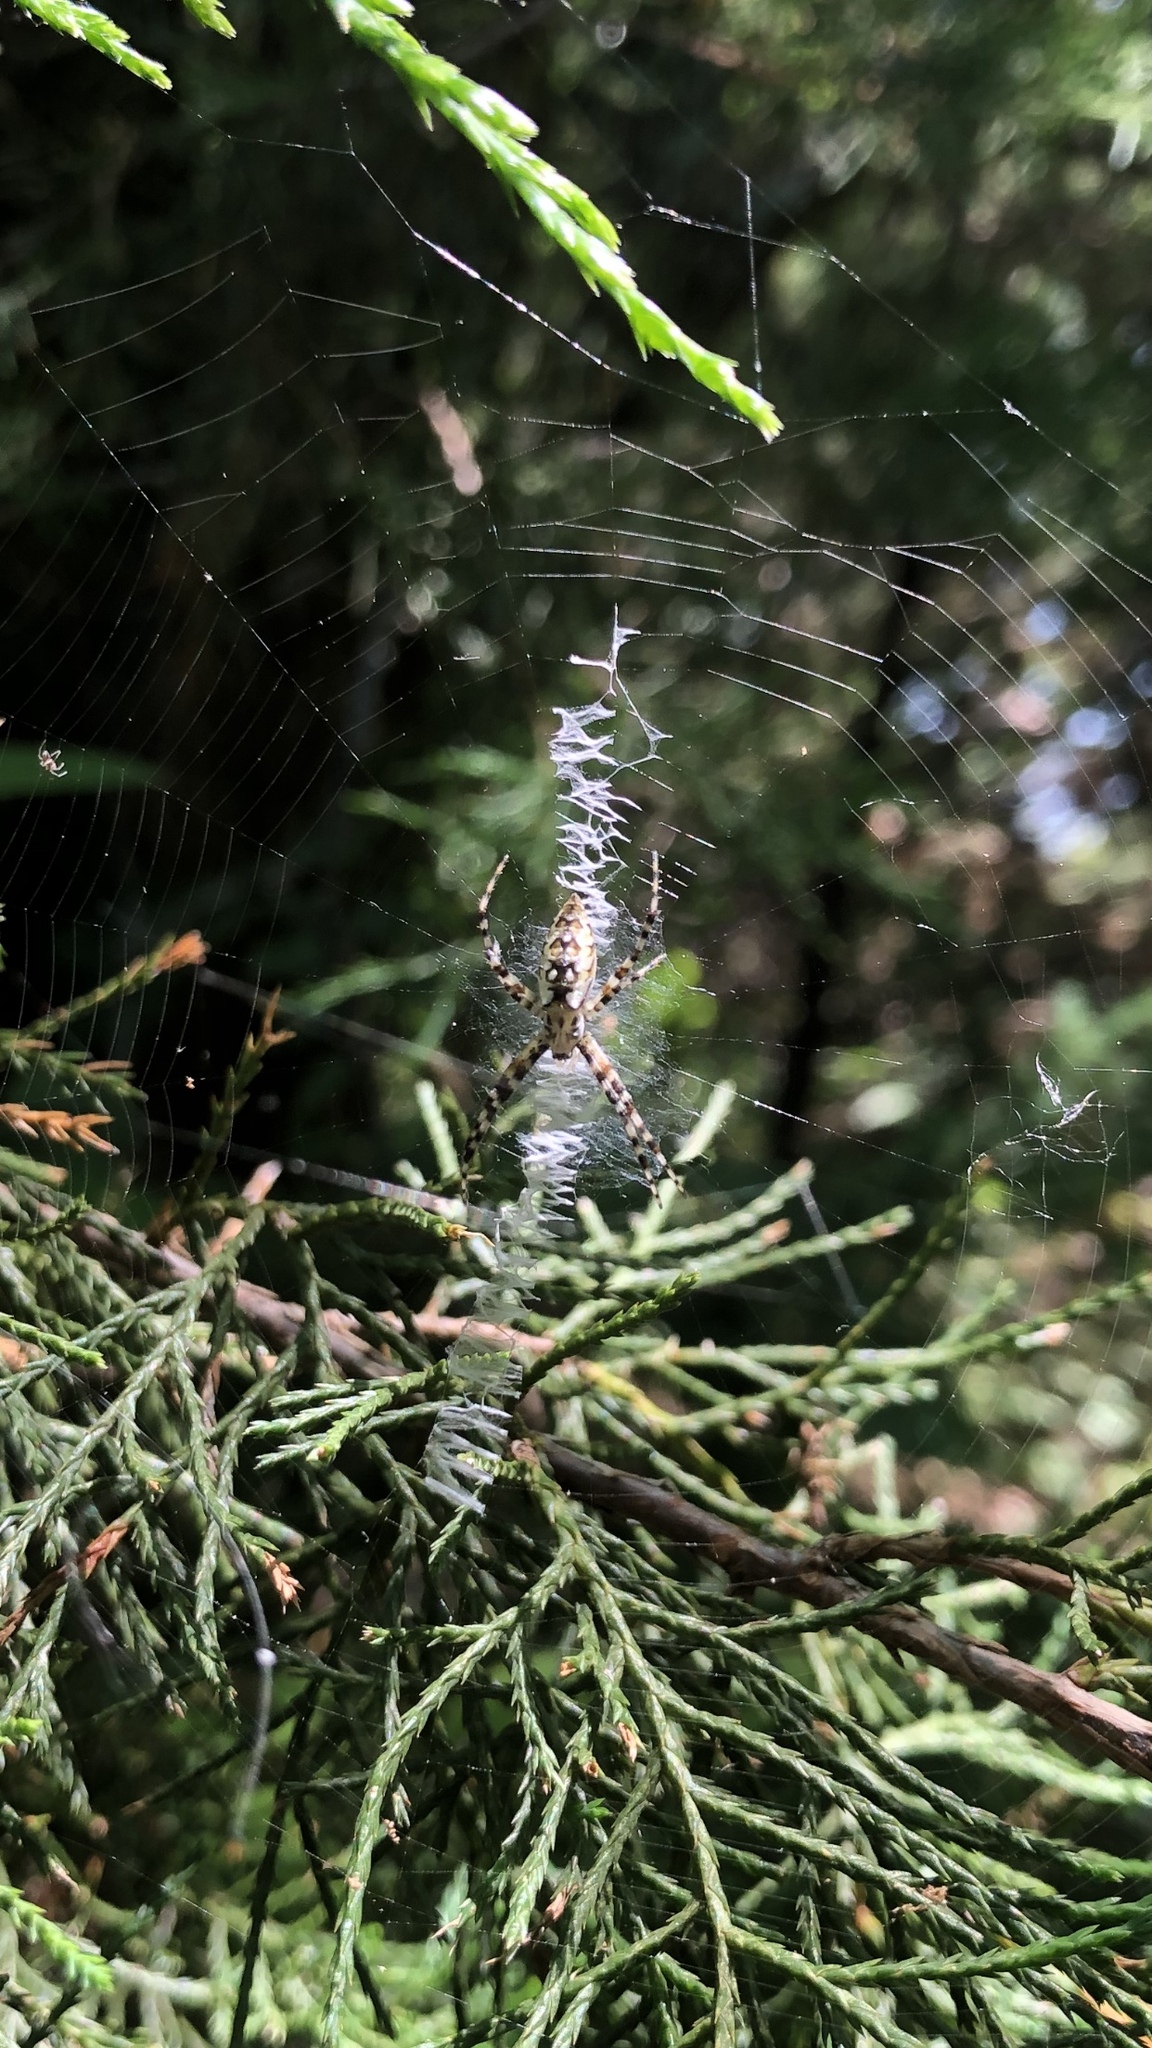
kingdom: Animalia
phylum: Arthropoda
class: Arachnida
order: Araneae
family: Araneidae
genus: Argiope
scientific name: Argiope aurantia
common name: Orb weavers
